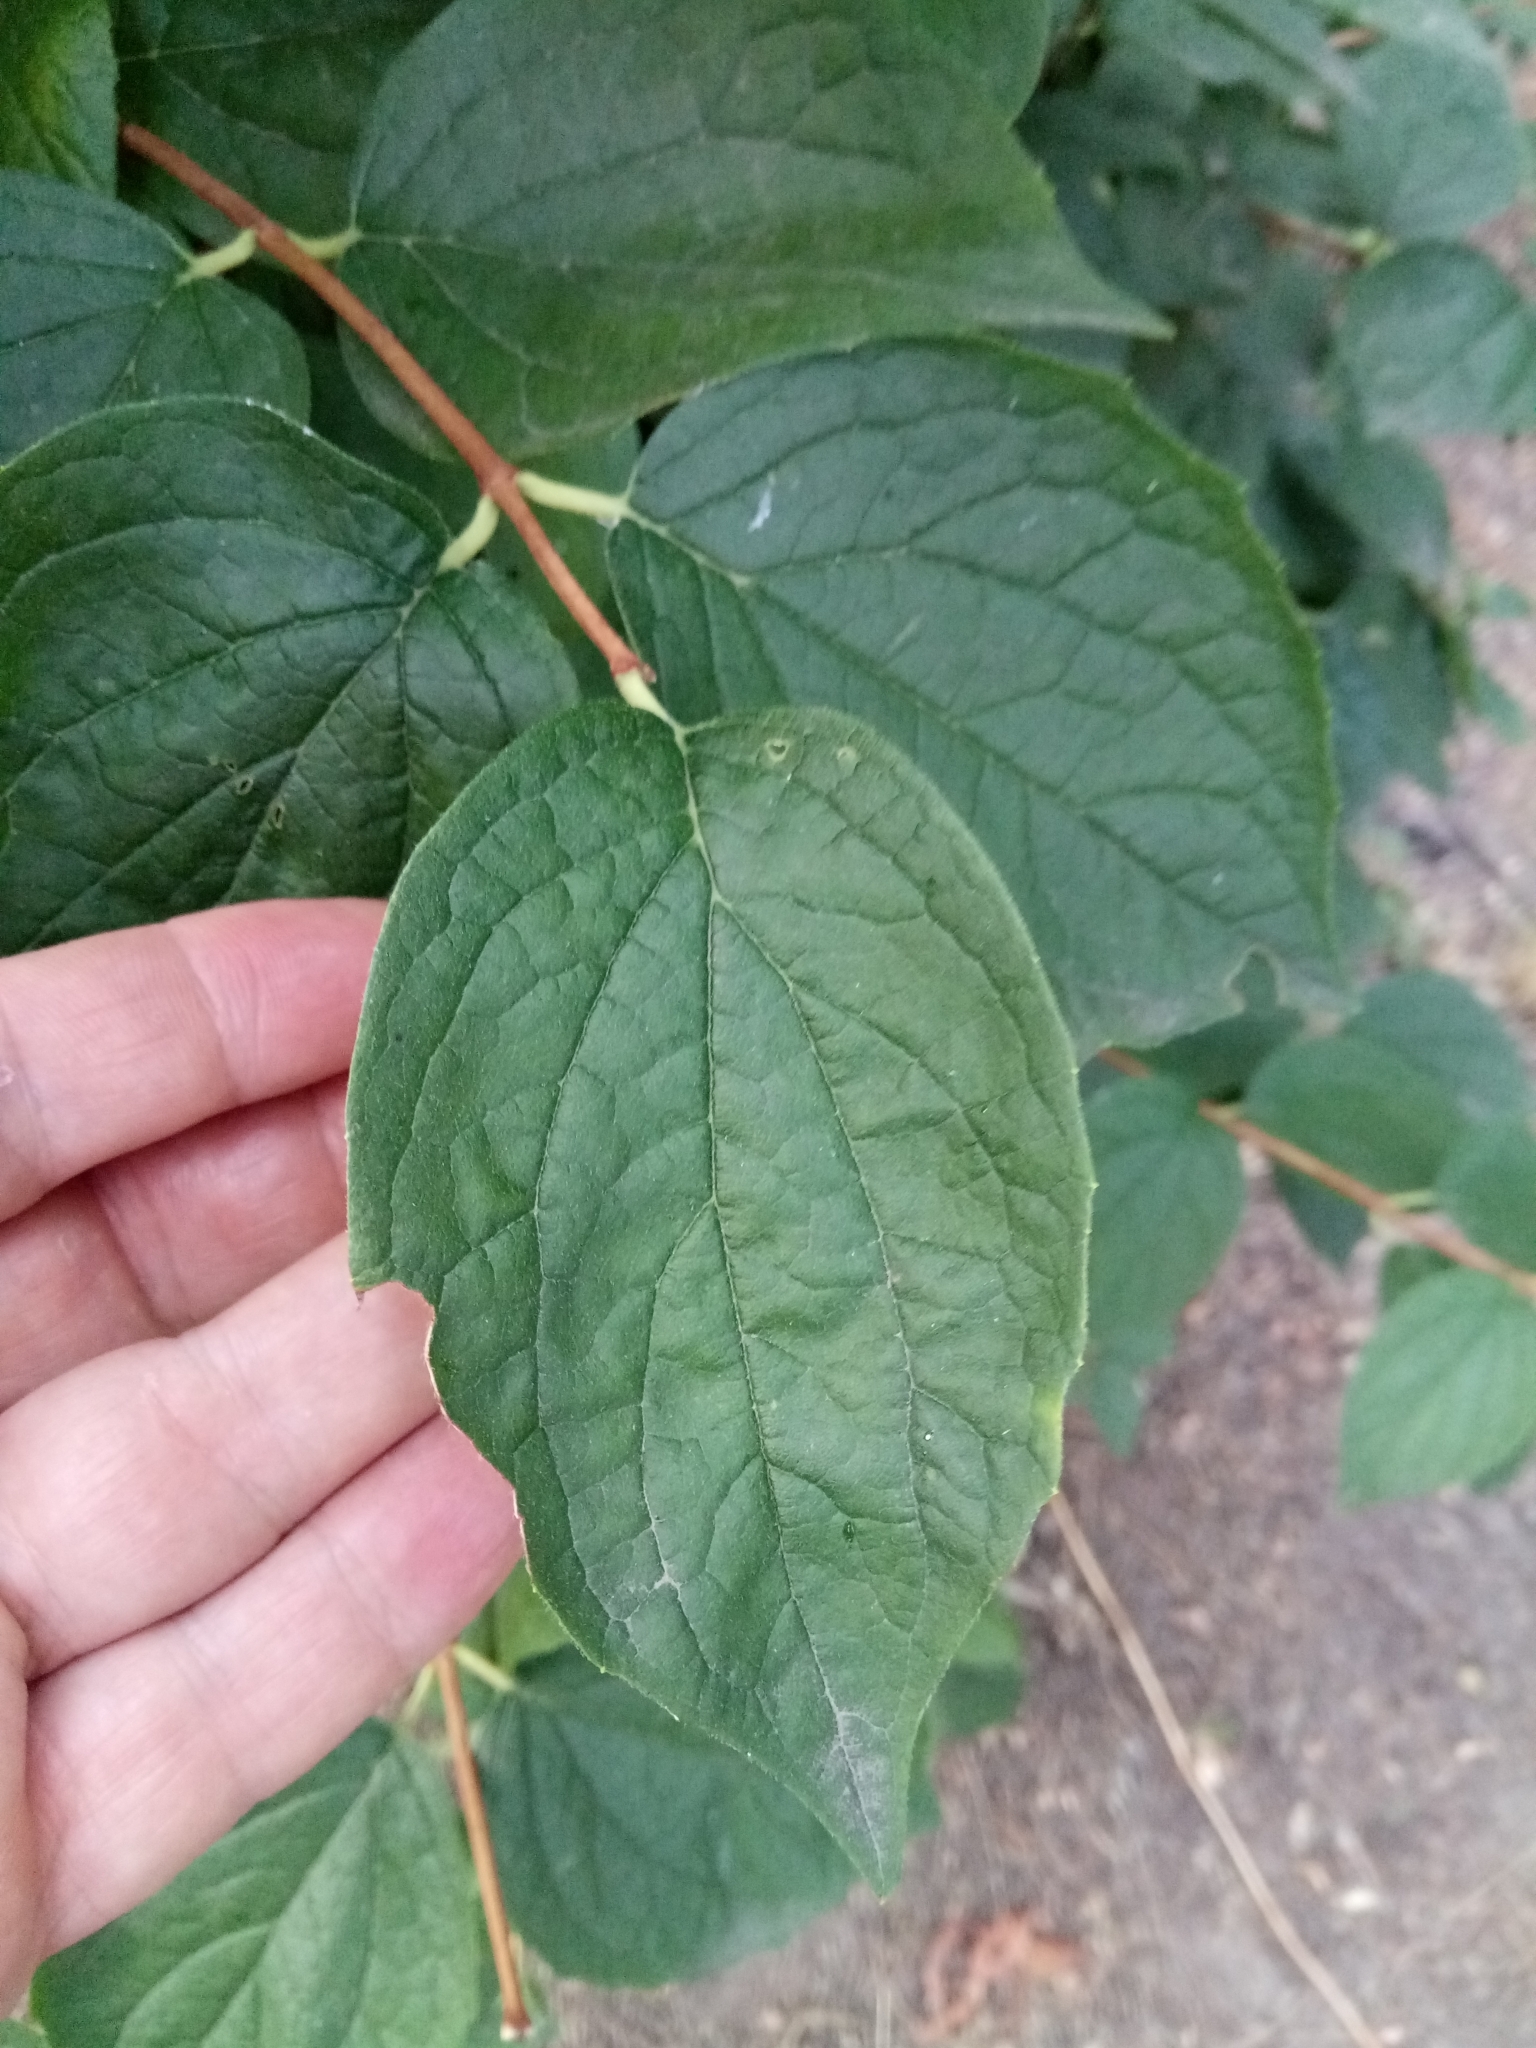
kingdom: Plantae
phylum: Tracheophyta
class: Magnoliopsida
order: Cornales
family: Hydrangeaceae
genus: Philadelphus
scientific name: Philadelphus coronarius
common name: Mock orange
